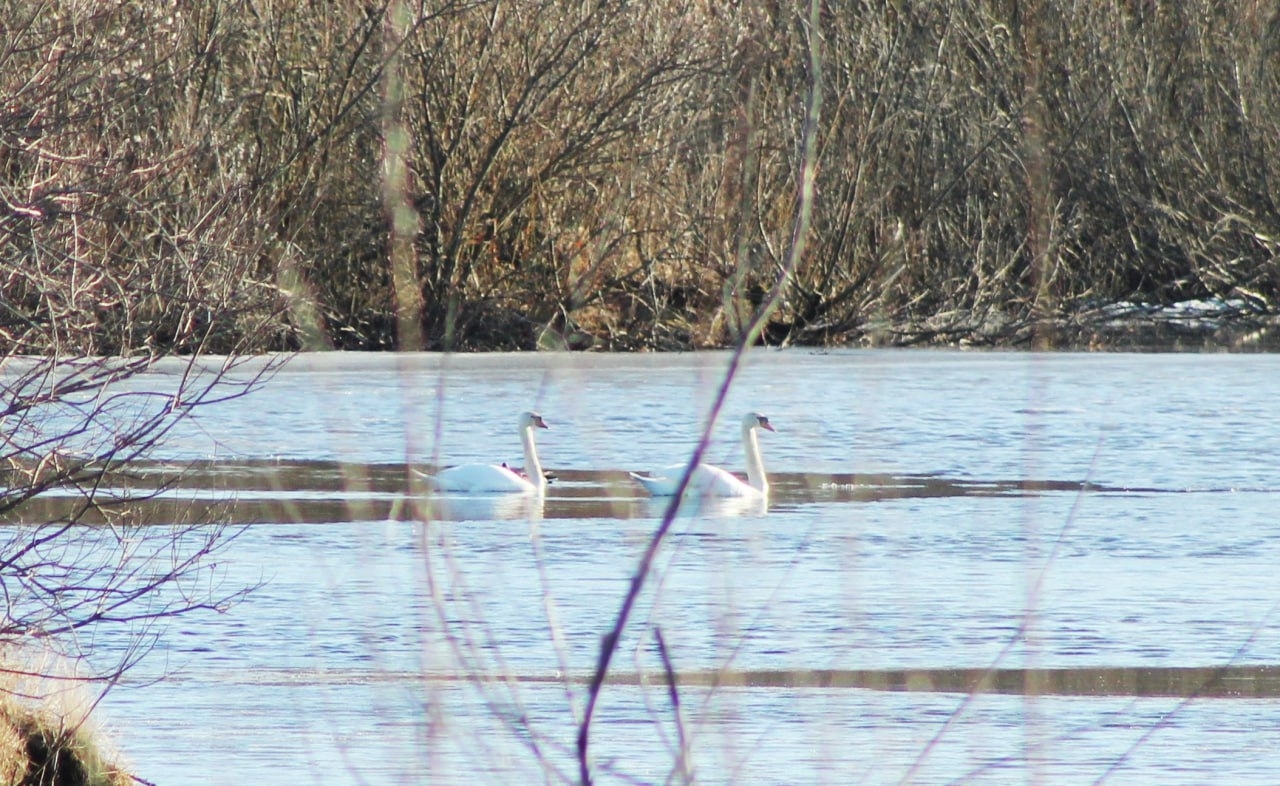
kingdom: Animalia
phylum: Chordata
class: Aves
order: Anseriformes
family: Anatidae
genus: Cygnus
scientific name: Cygnus olor
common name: Mute swan
